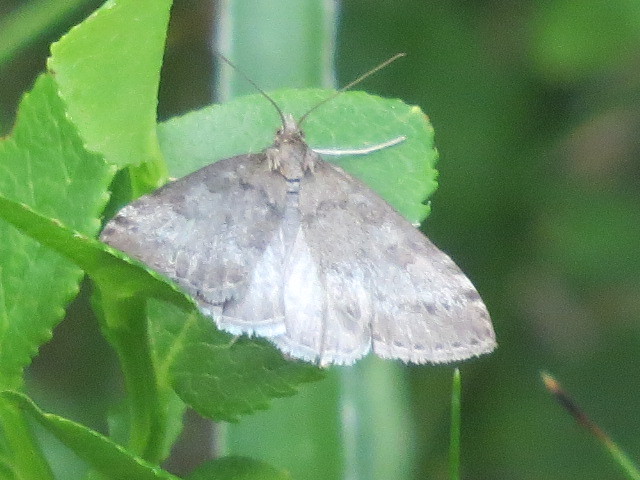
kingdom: Animalia
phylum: Arthropoda
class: Insecta
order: Lepidoptera
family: Crambidae
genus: Udea
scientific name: Udea carniolica
